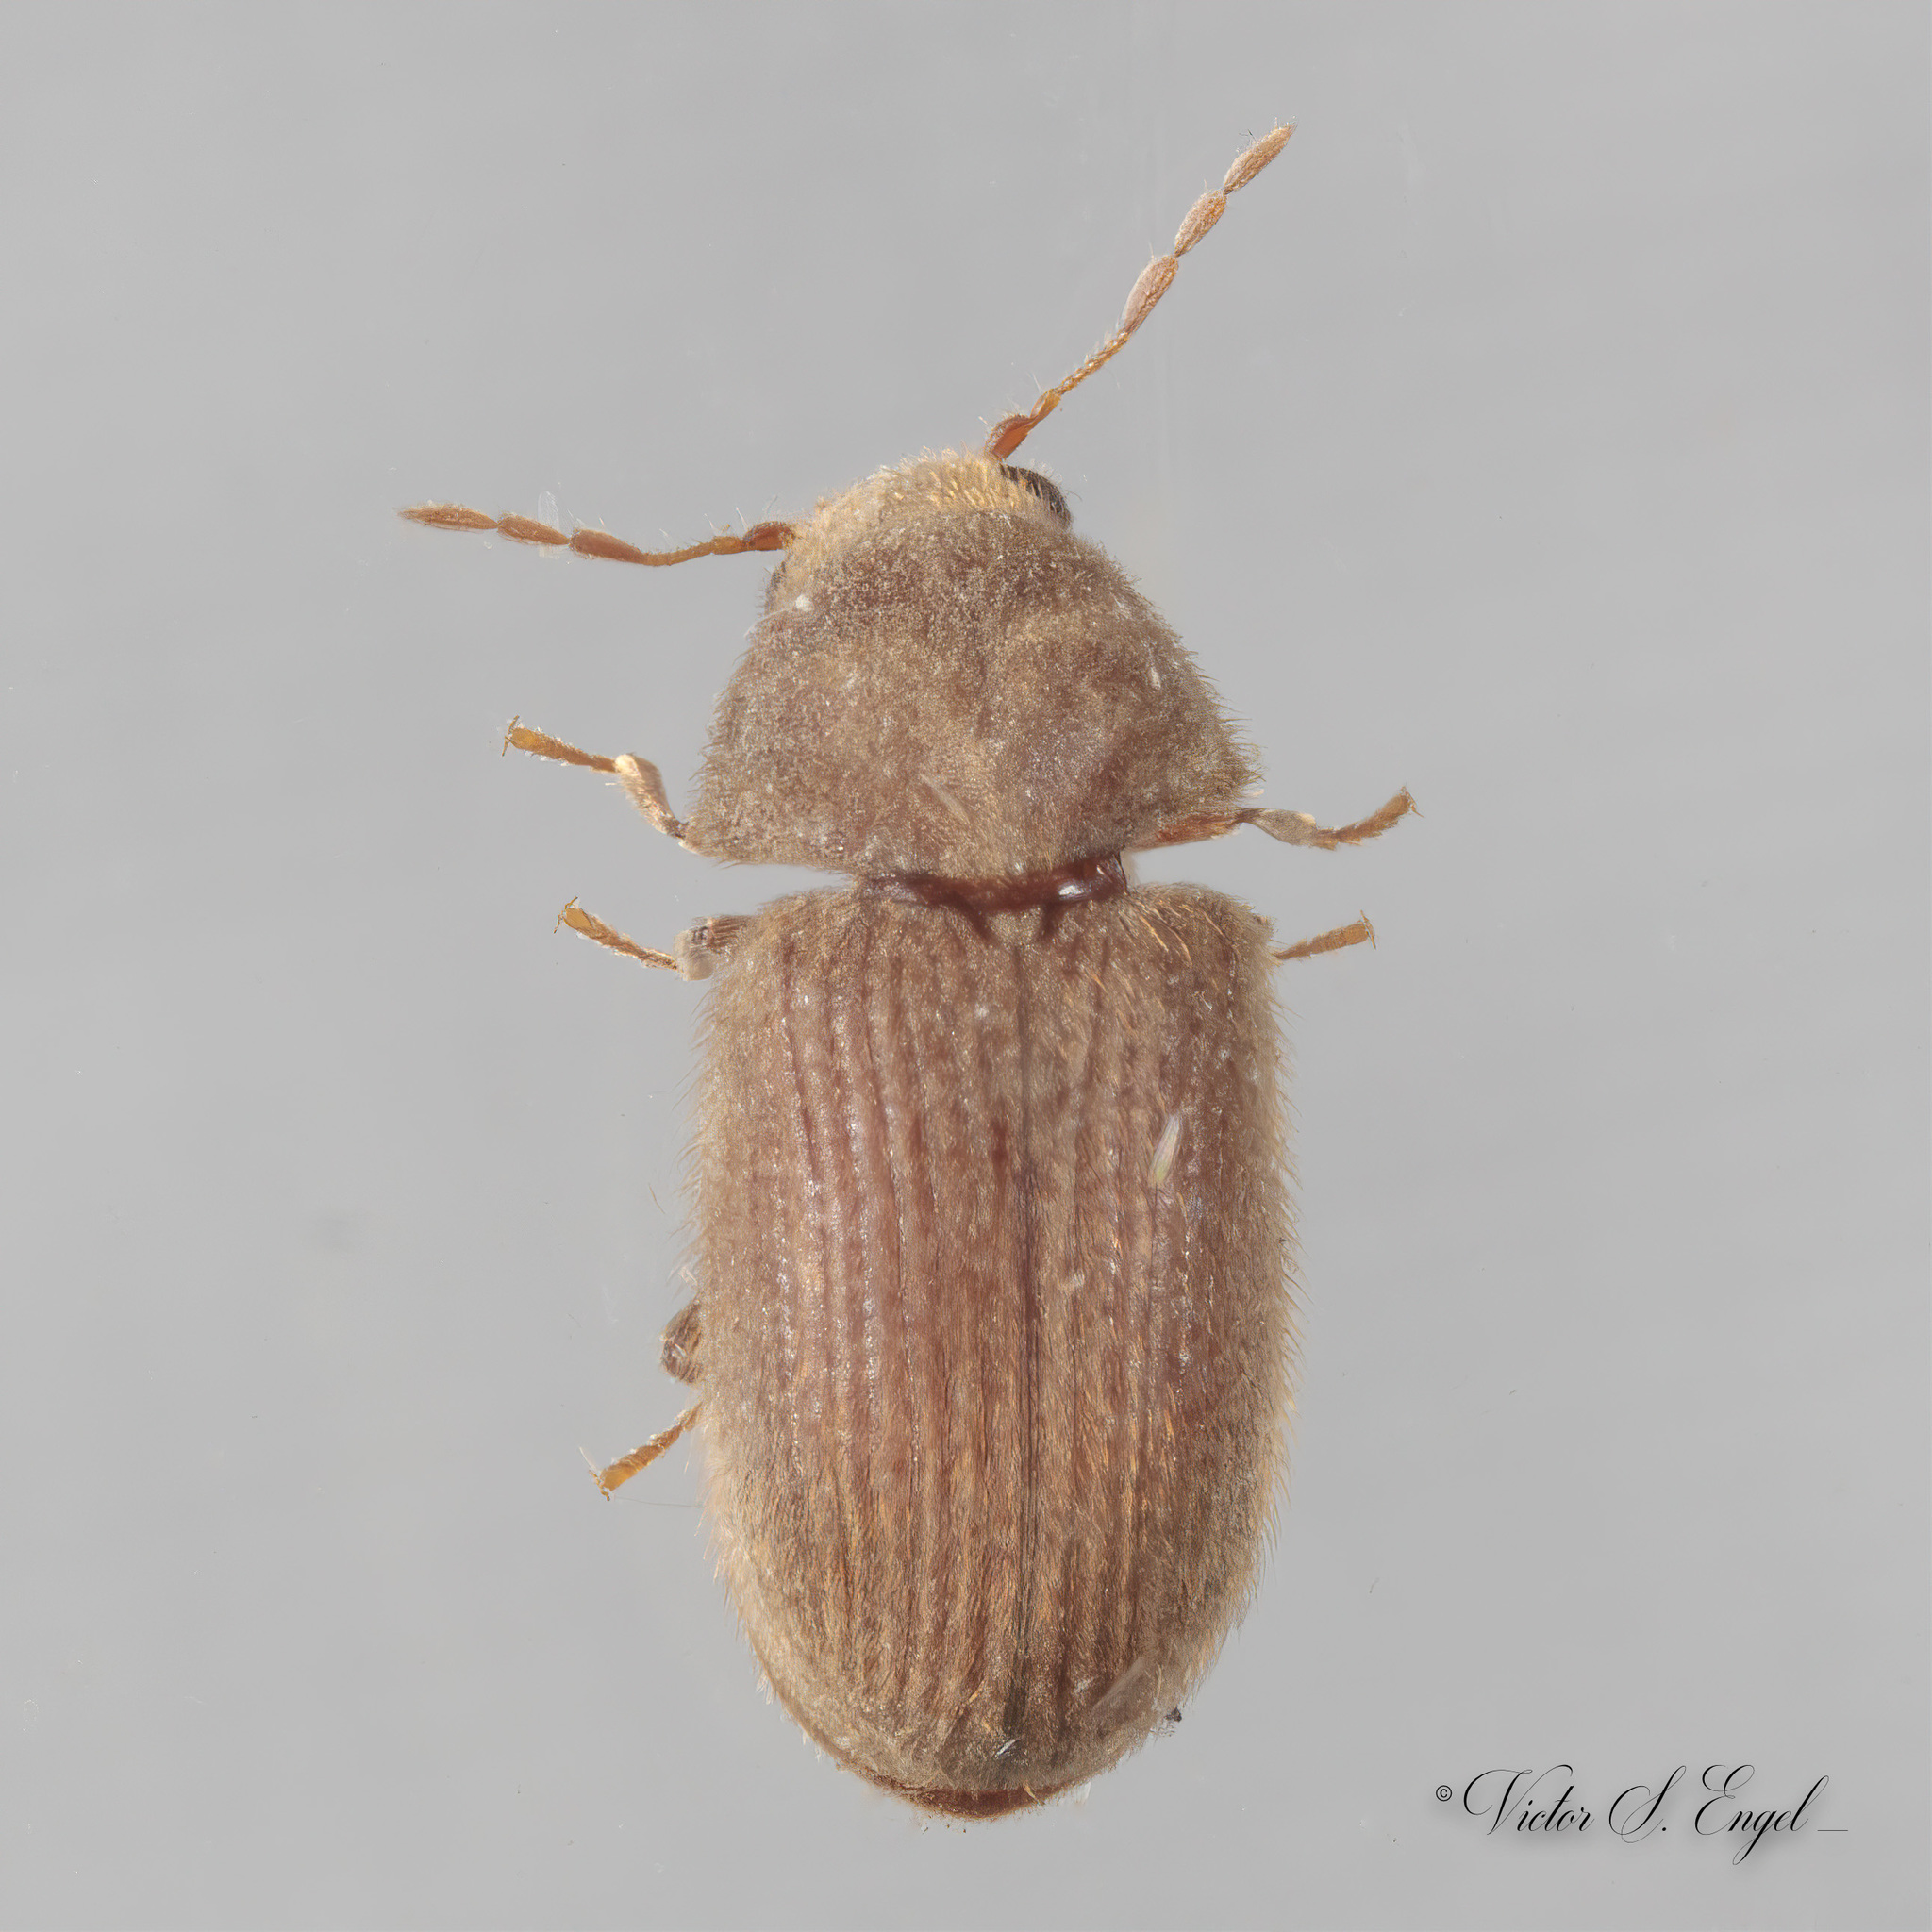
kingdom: Animalia
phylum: Arthropoda
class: Insecta
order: Coleoptera
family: Anobiidae
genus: Stegobium
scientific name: Stegobium paniceum
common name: Drugstore beetle
